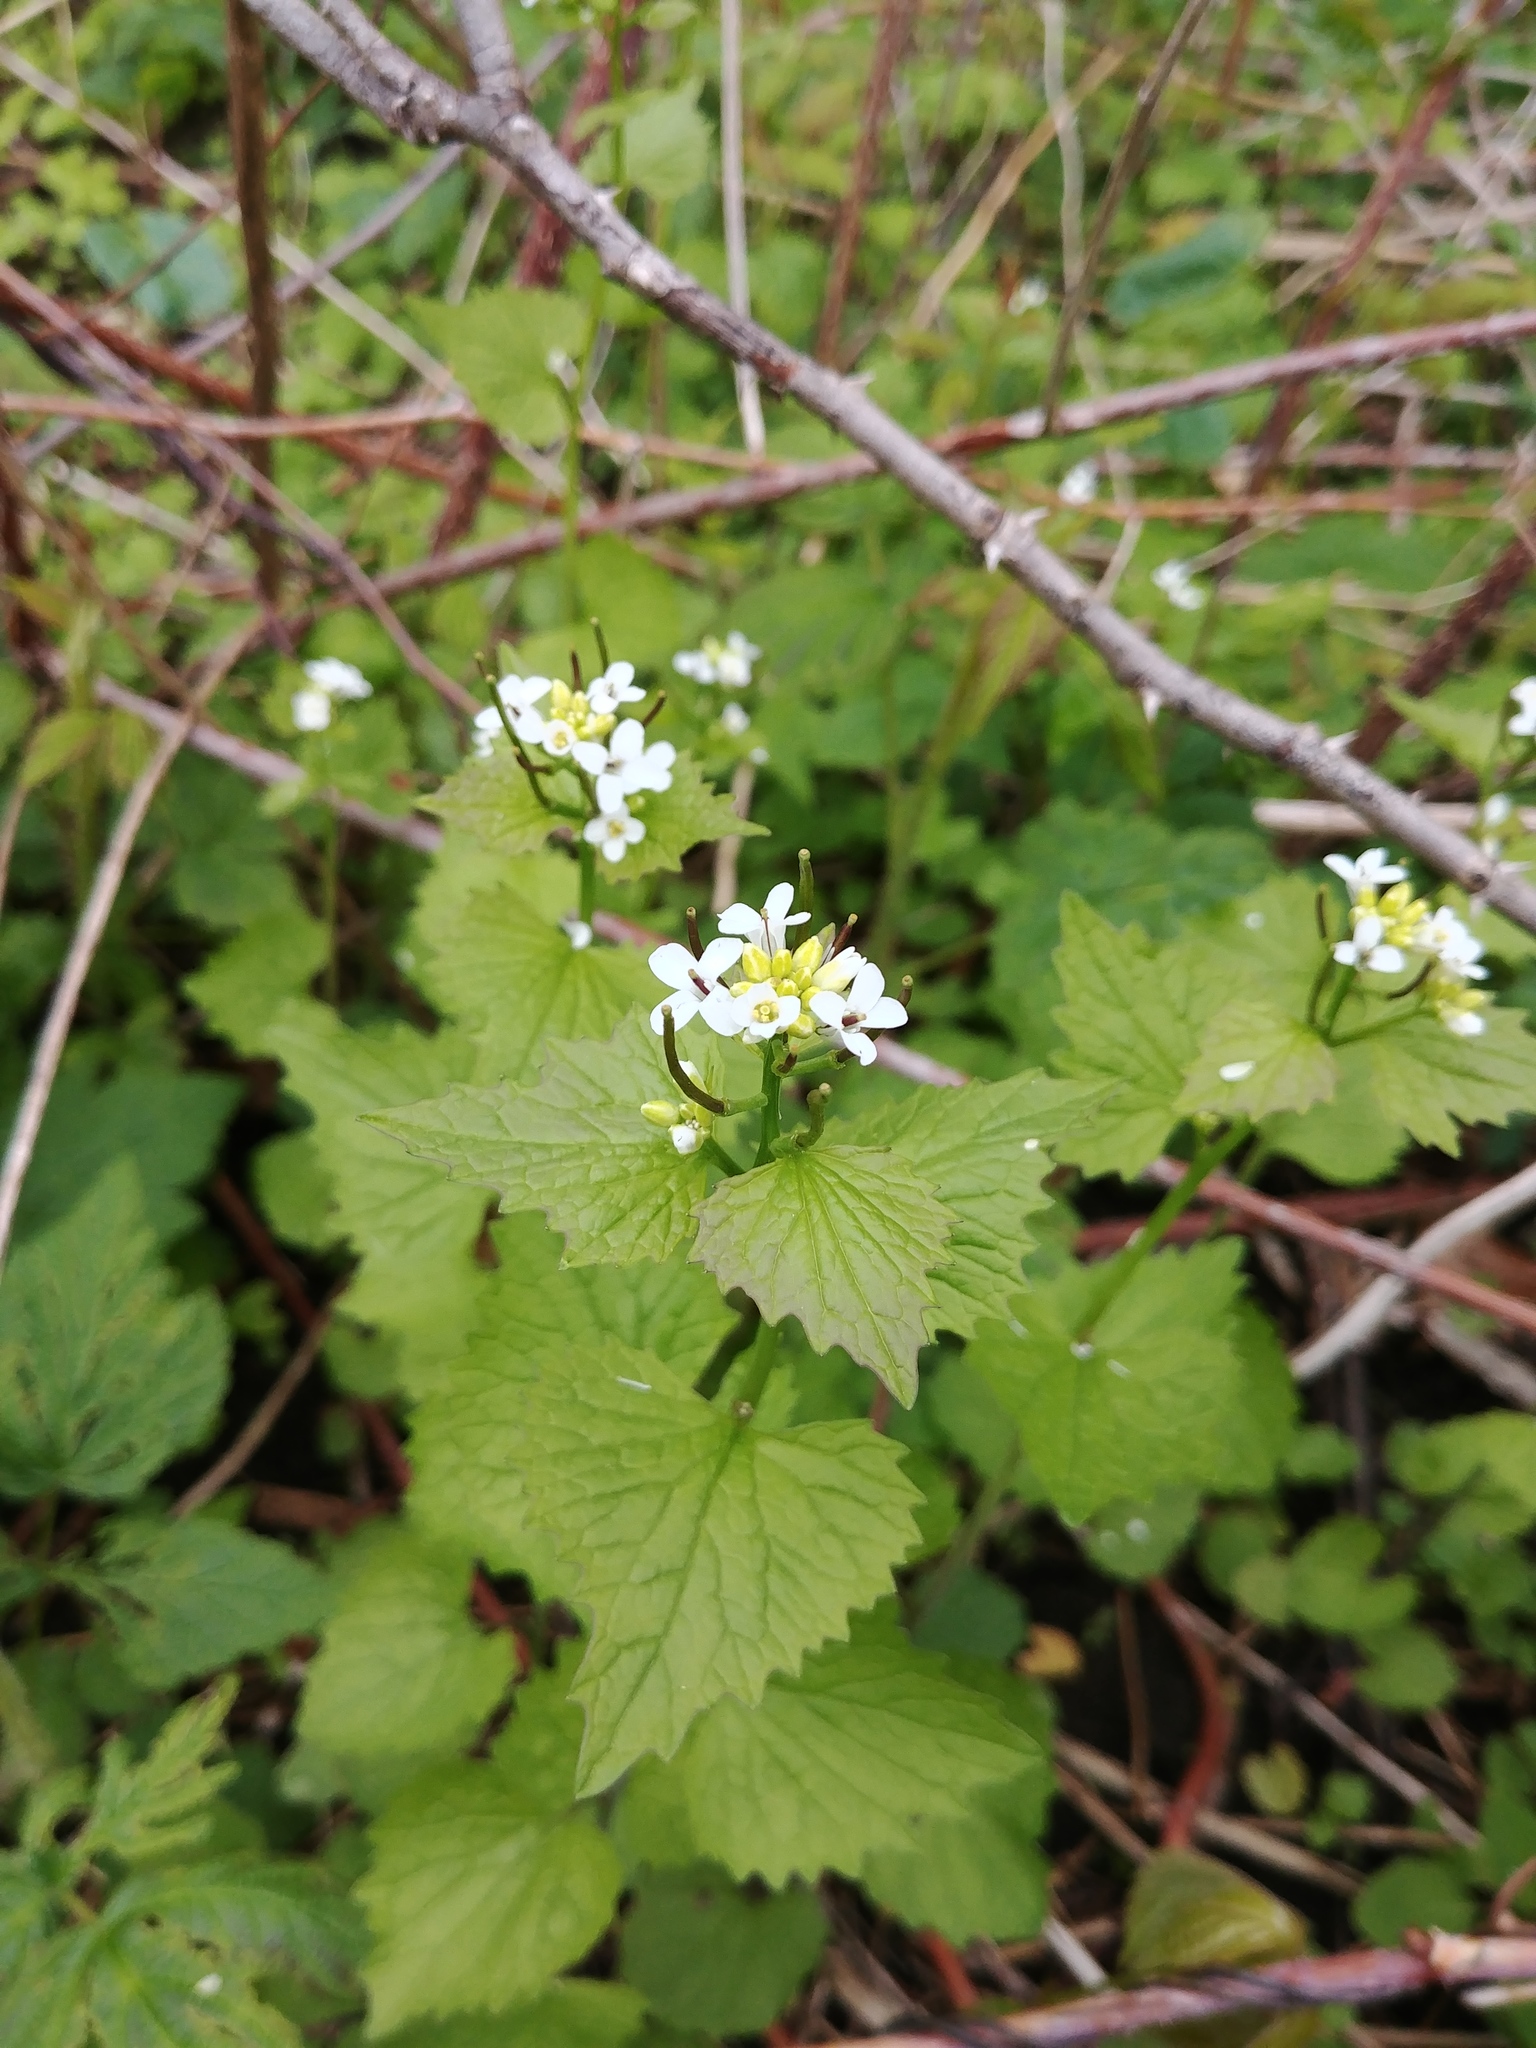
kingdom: Plantae
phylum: Tracheophyta
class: Magnoliopsida
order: Brassicales
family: Brassicaceae
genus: Alliaria
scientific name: Alliaria petiolata
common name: Garlic mustard
